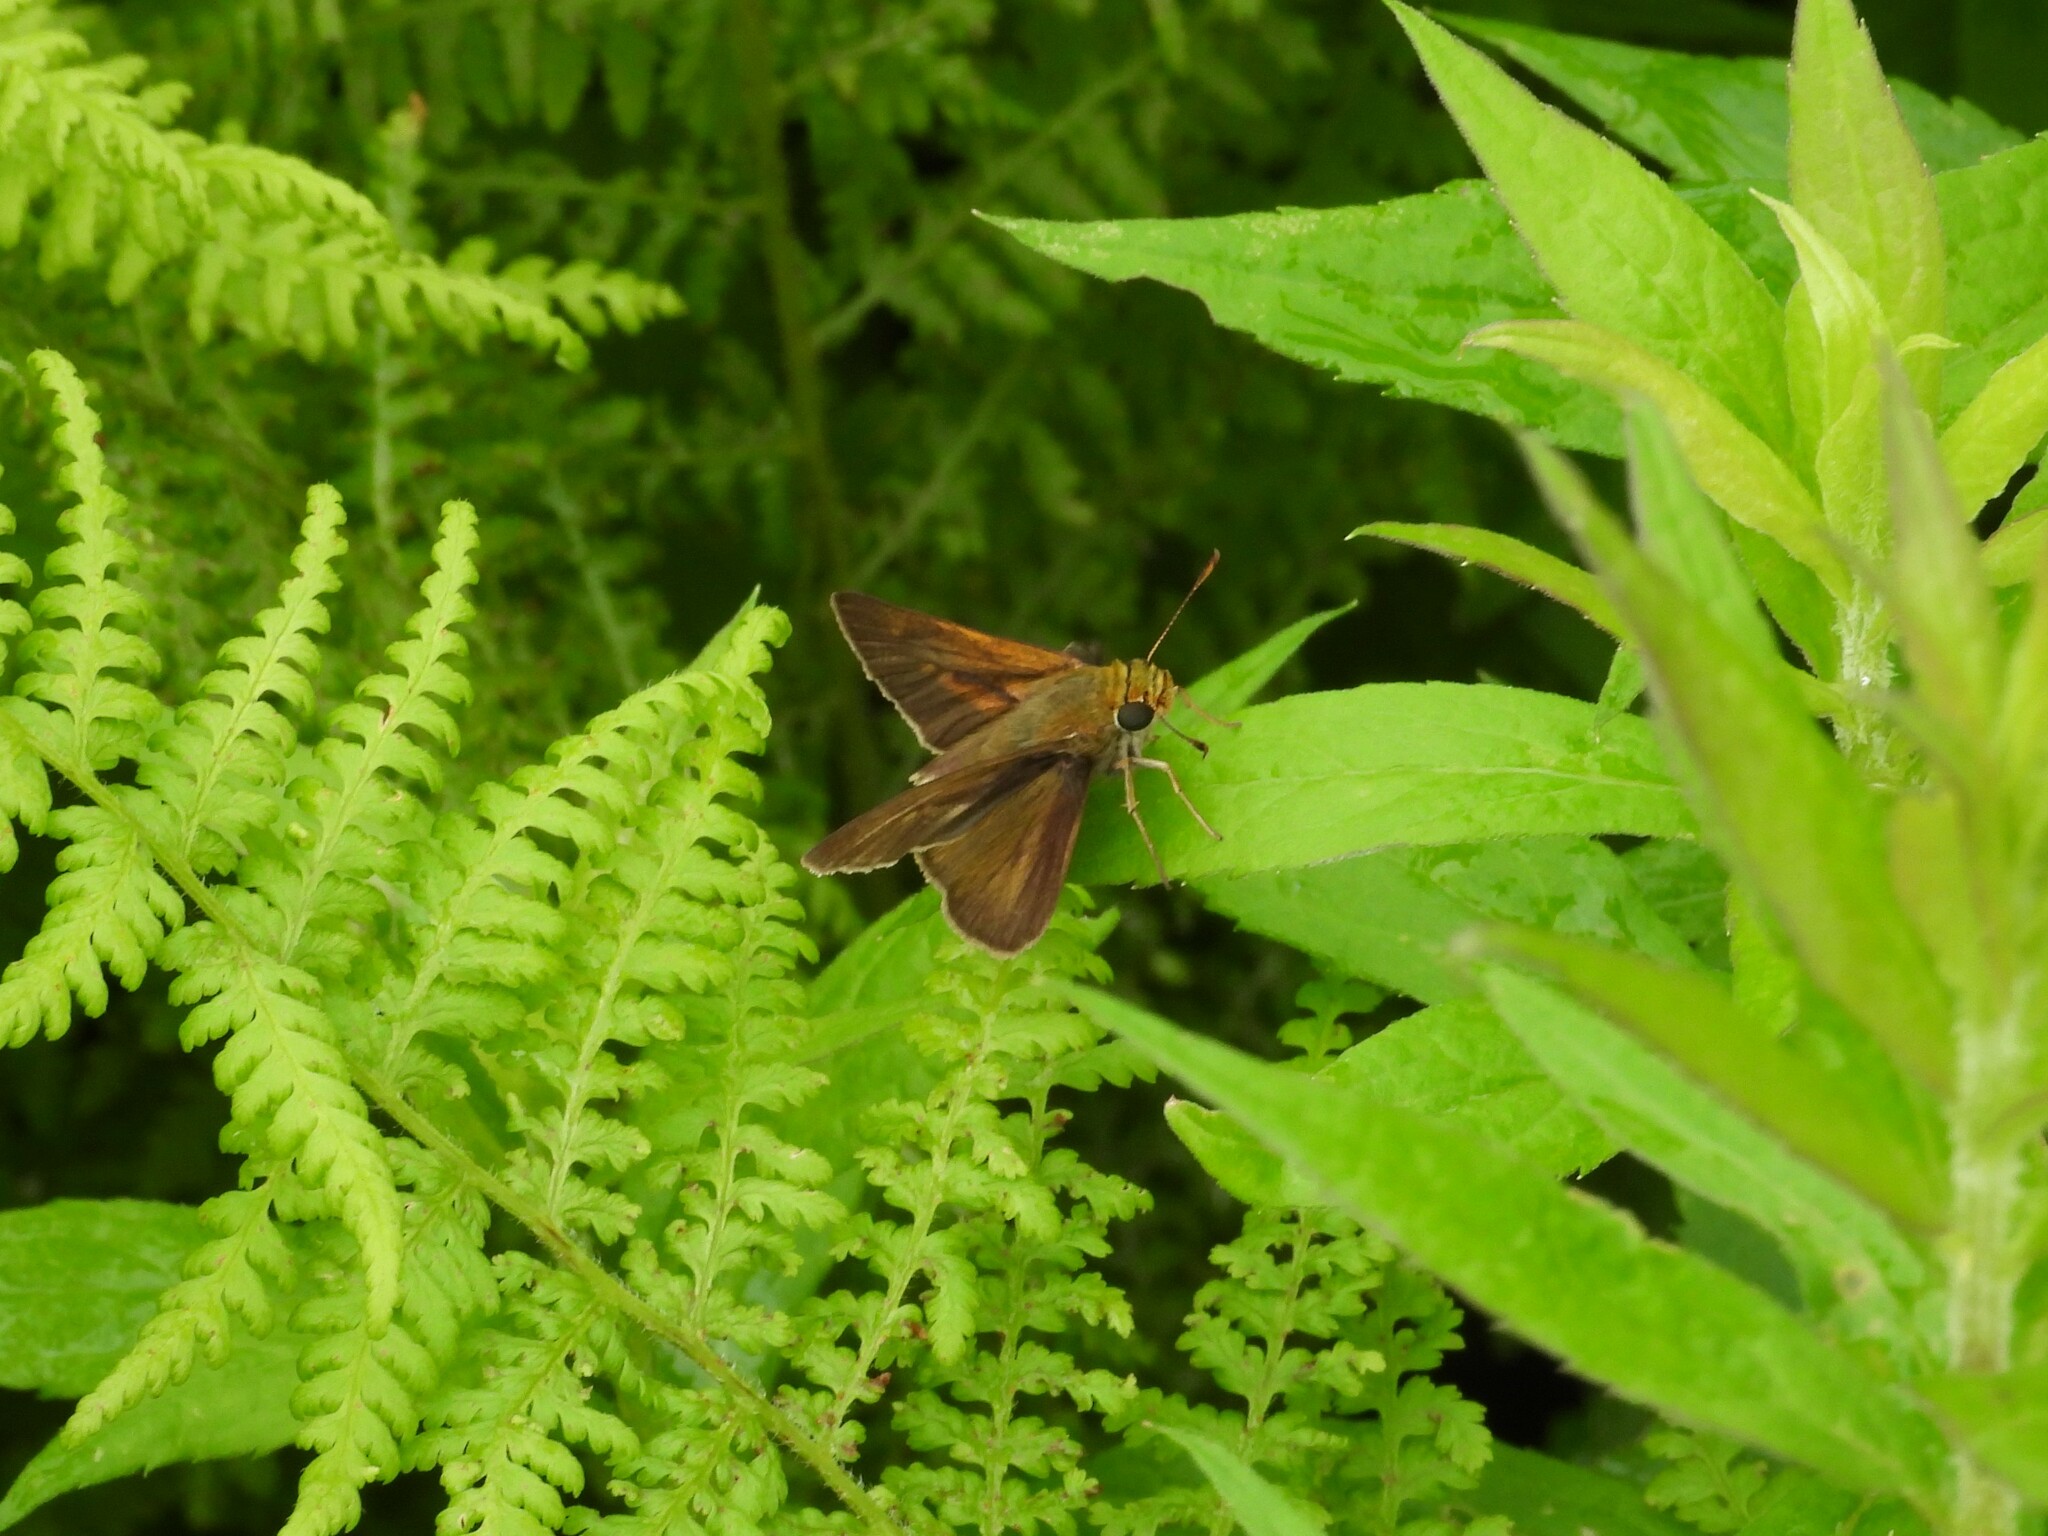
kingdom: Animalia
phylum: Arthropoda
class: Insecta
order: Lepidoptera
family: Hesperiidae
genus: Euphyes
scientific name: Euphyes vestris
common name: Dun skipper
